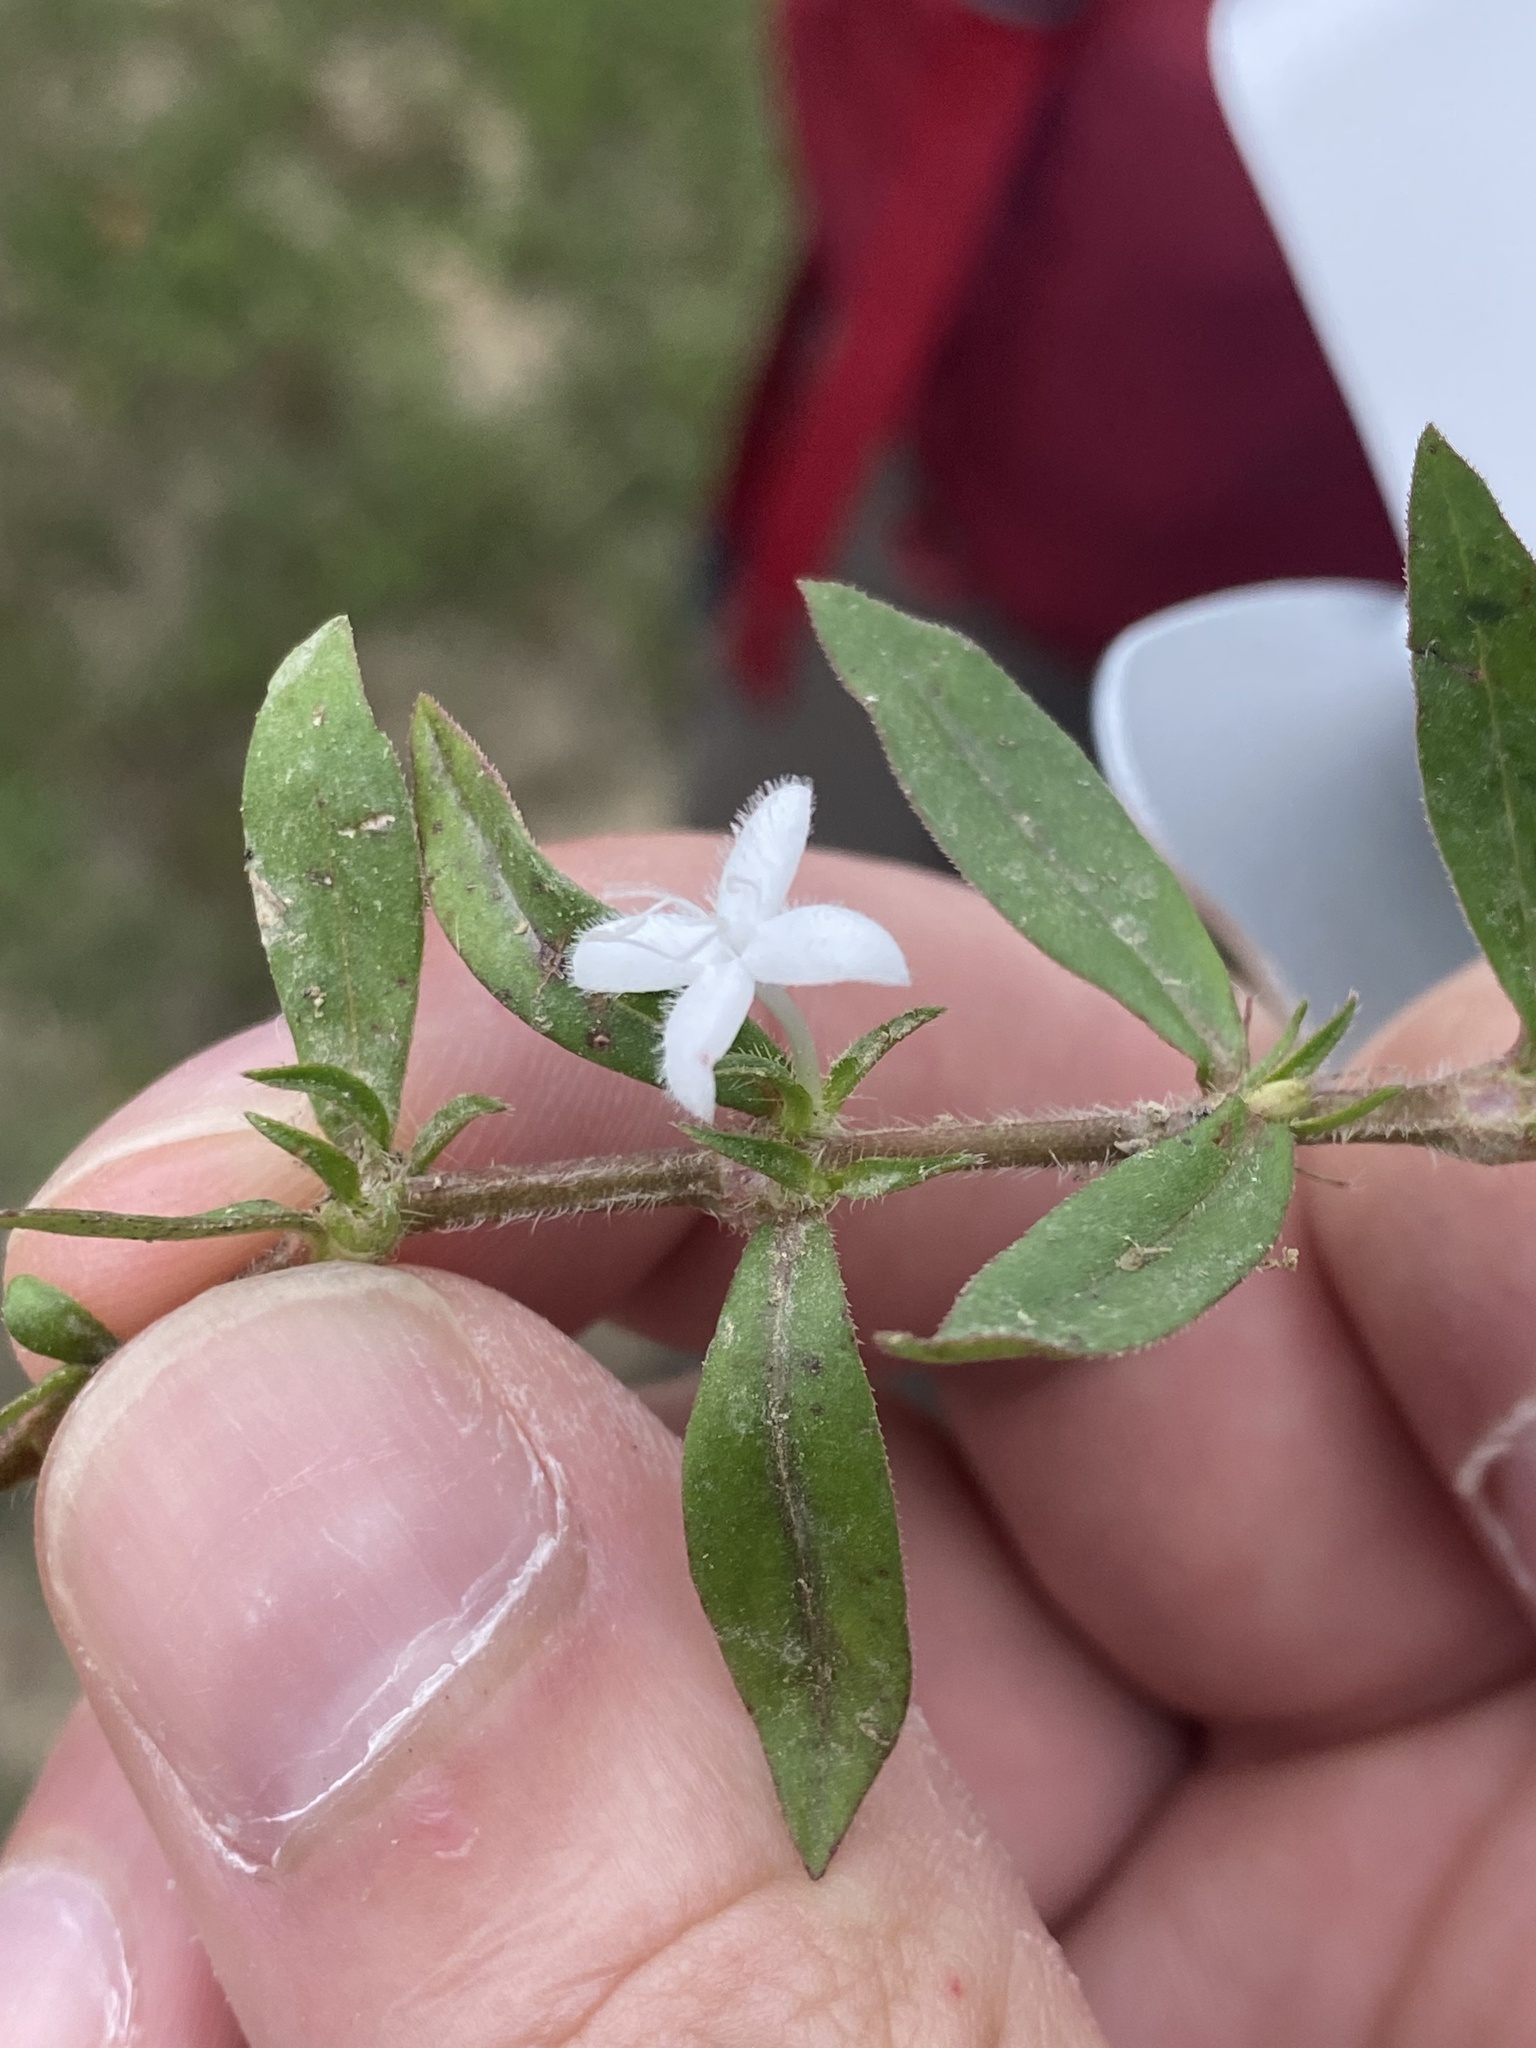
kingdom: Plantae
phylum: Tracheophyta
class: Magnoliopsida
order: Gentianales
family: Rubiaceae
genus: Diodia
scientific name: Diodia virginiana
